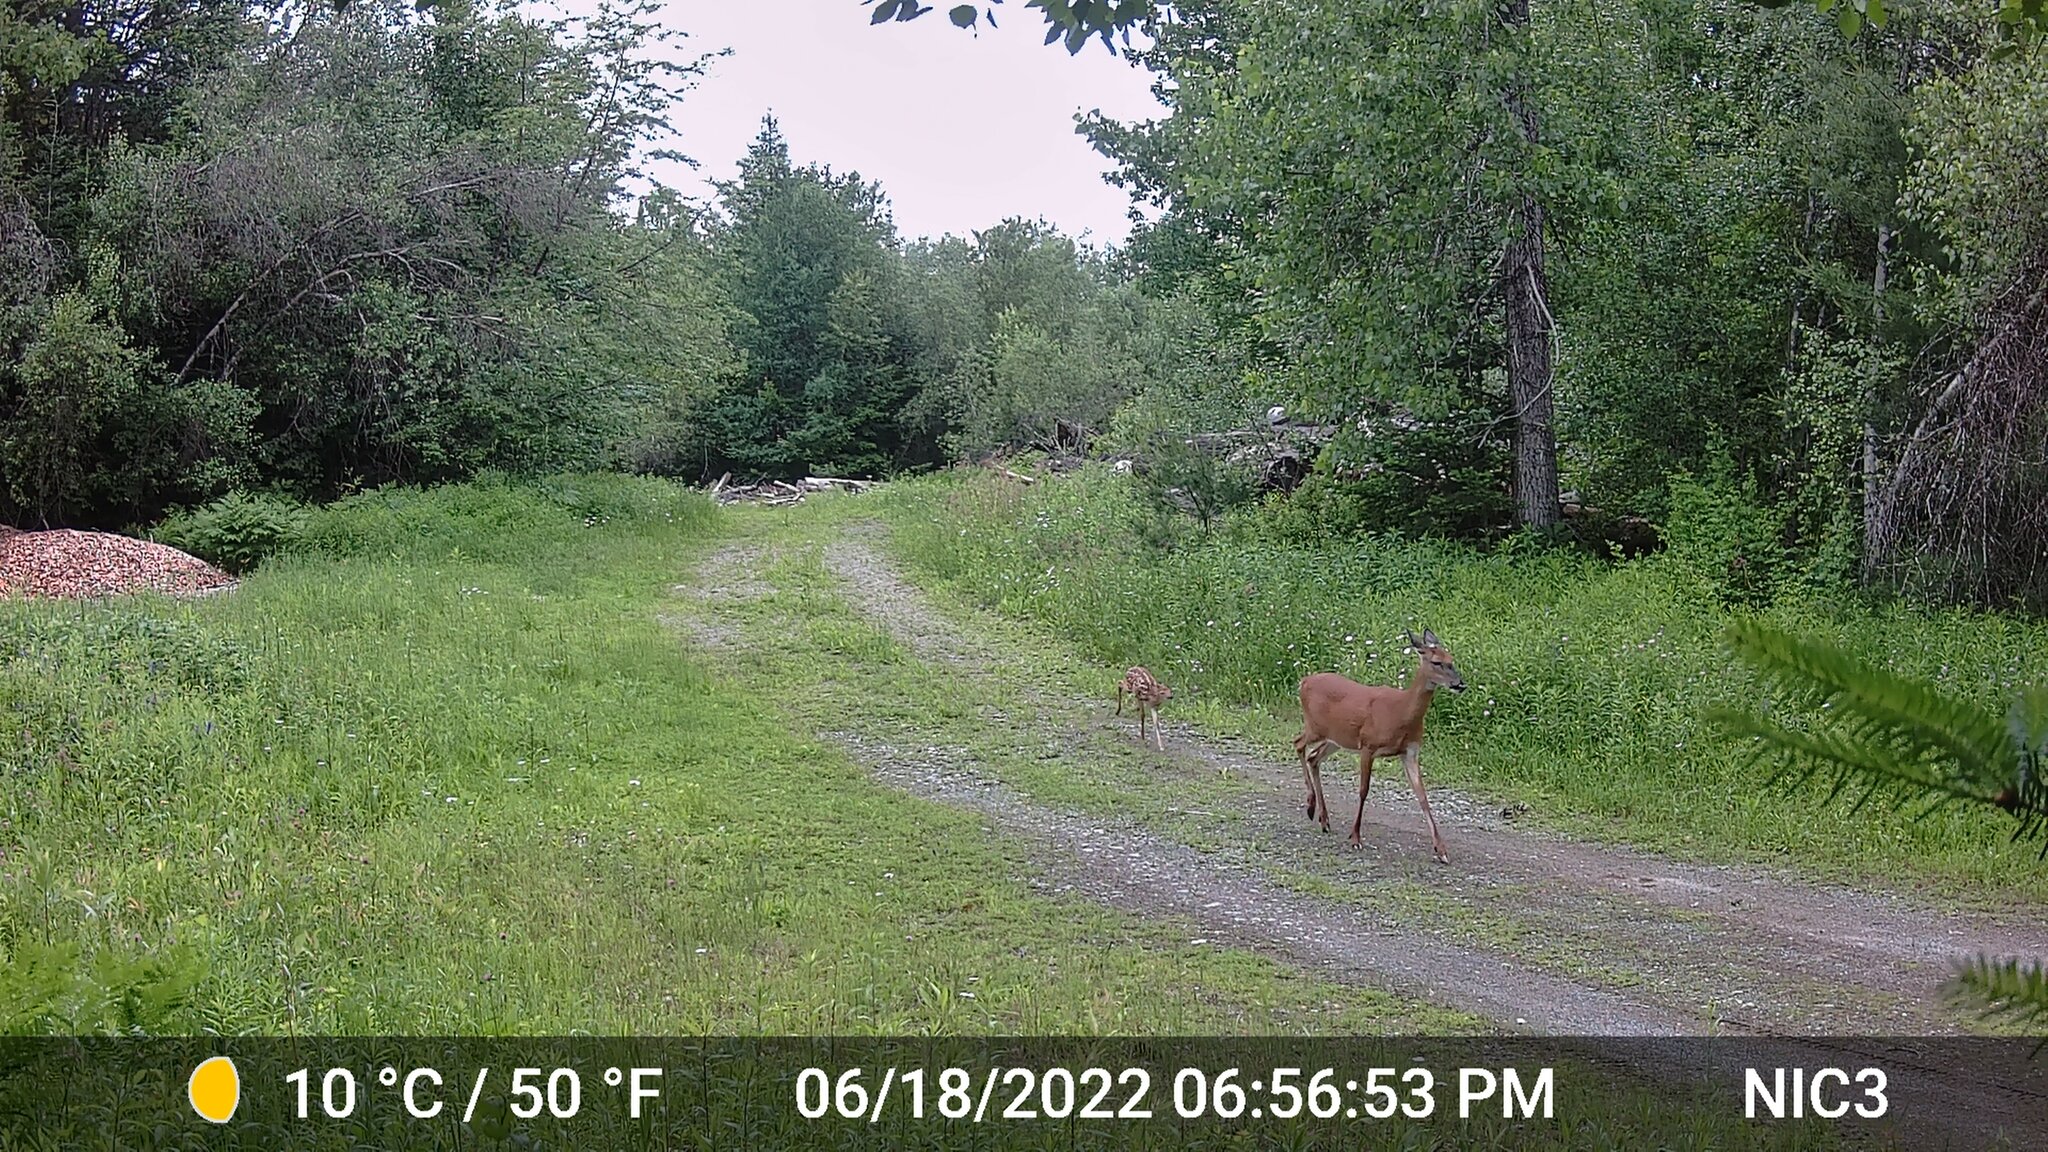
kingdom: Animalia
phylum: Chordata
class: Mammalia
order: Artiodactyla
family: Cervidae
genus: Odocoileus
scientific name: Odocoileus virginianus
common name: White-tailed deer
